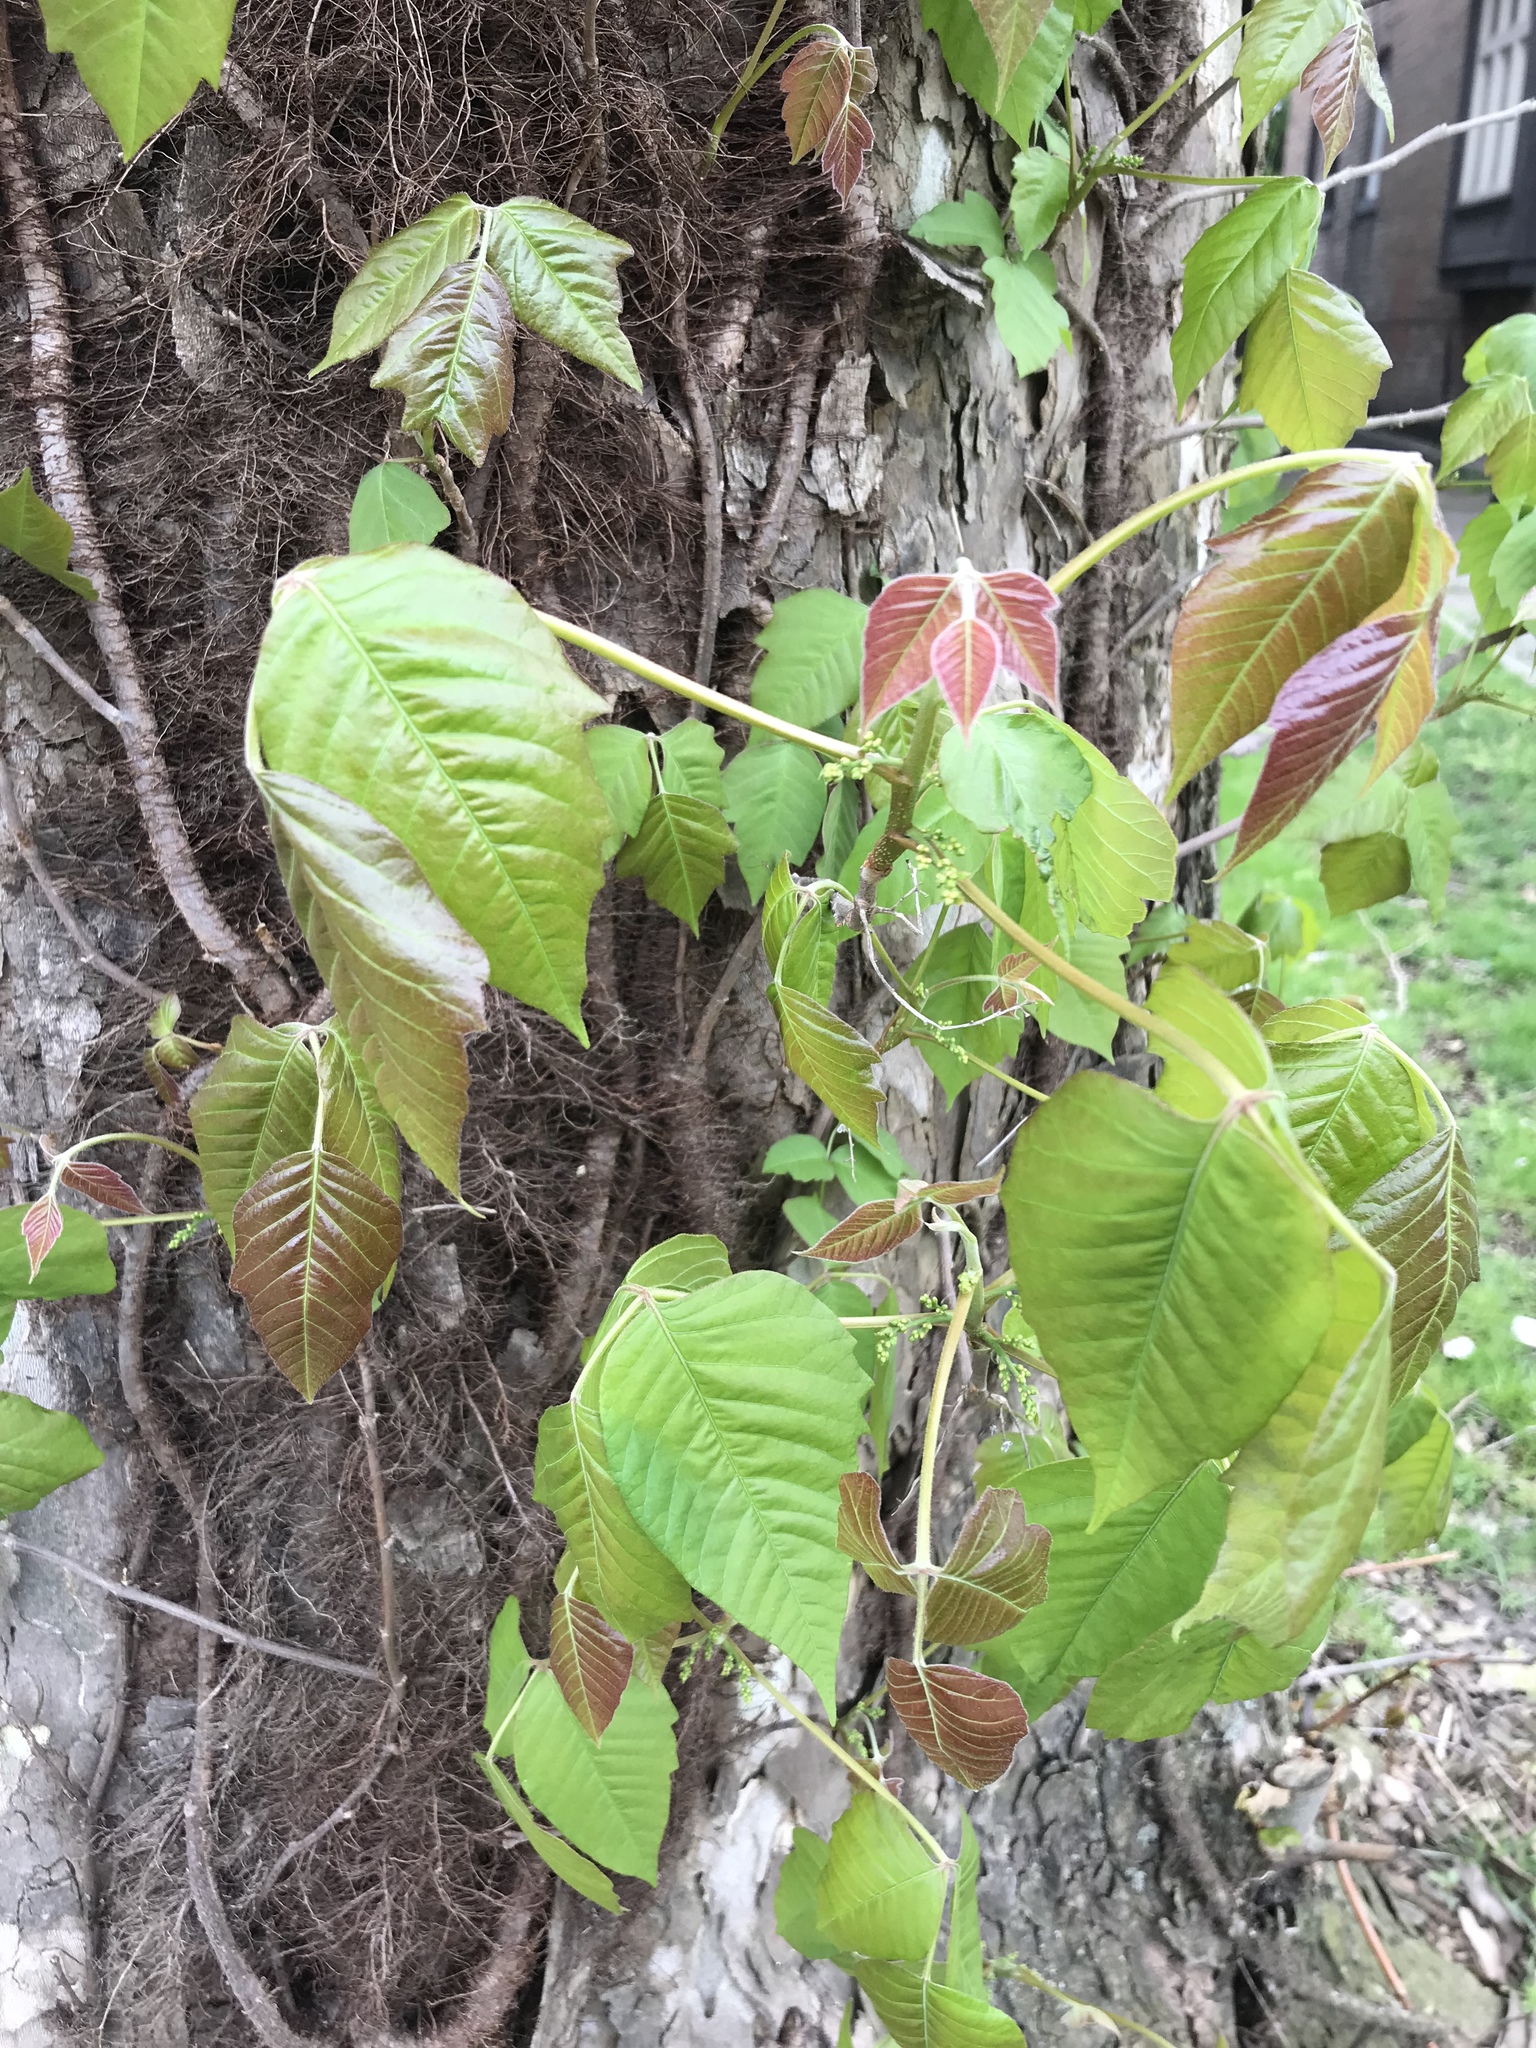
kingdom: Plantae
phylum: Tracheophyta
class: Magnoliopsida
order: Sapindales
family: Anacardiaceae
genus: Toxicodendron
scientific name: Toxicodendron radicans
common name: Poison ivy
